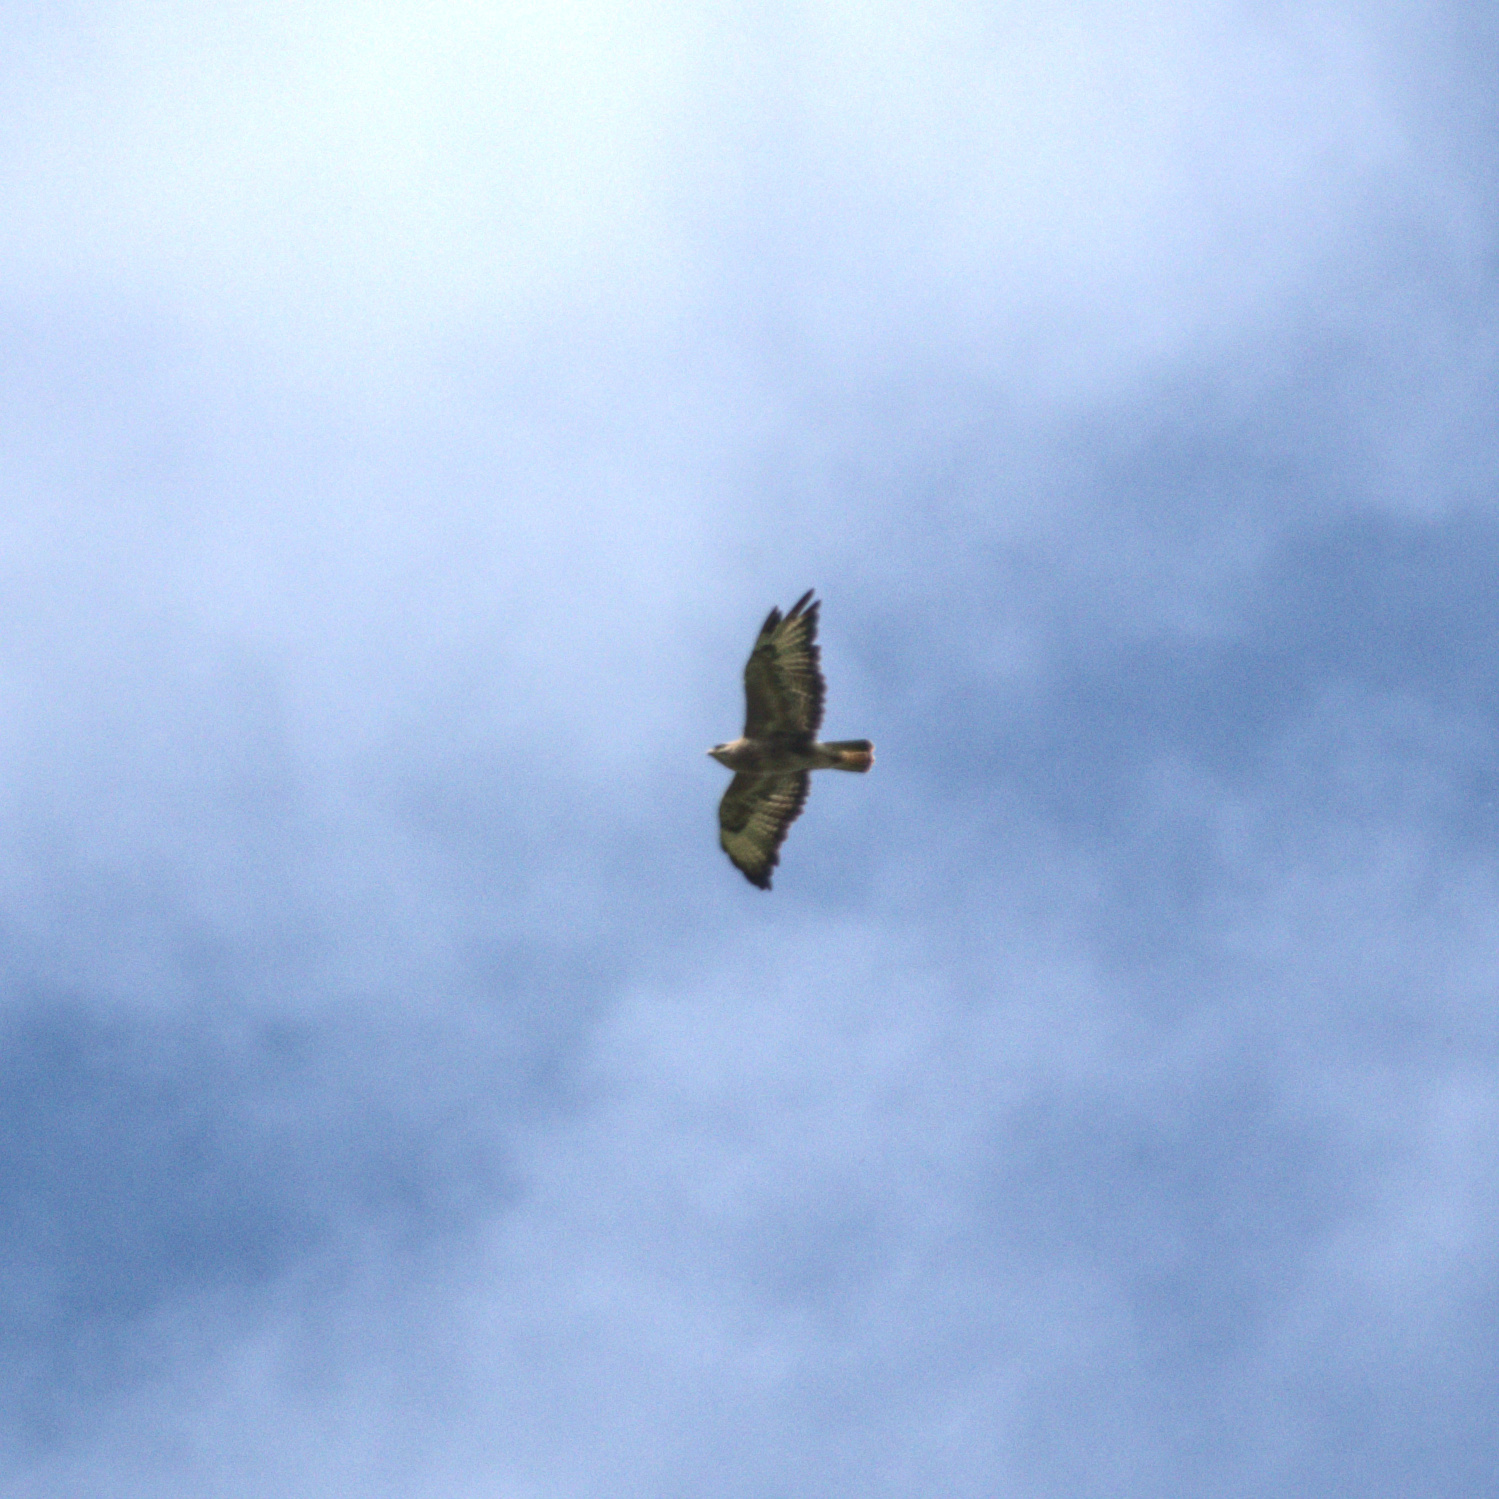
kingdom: Animalia
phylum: Chordata
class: Aves
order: Accipitriformes
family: Accipitridae
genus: Buteo
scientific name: Buteo buteo
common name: Common buzzard
